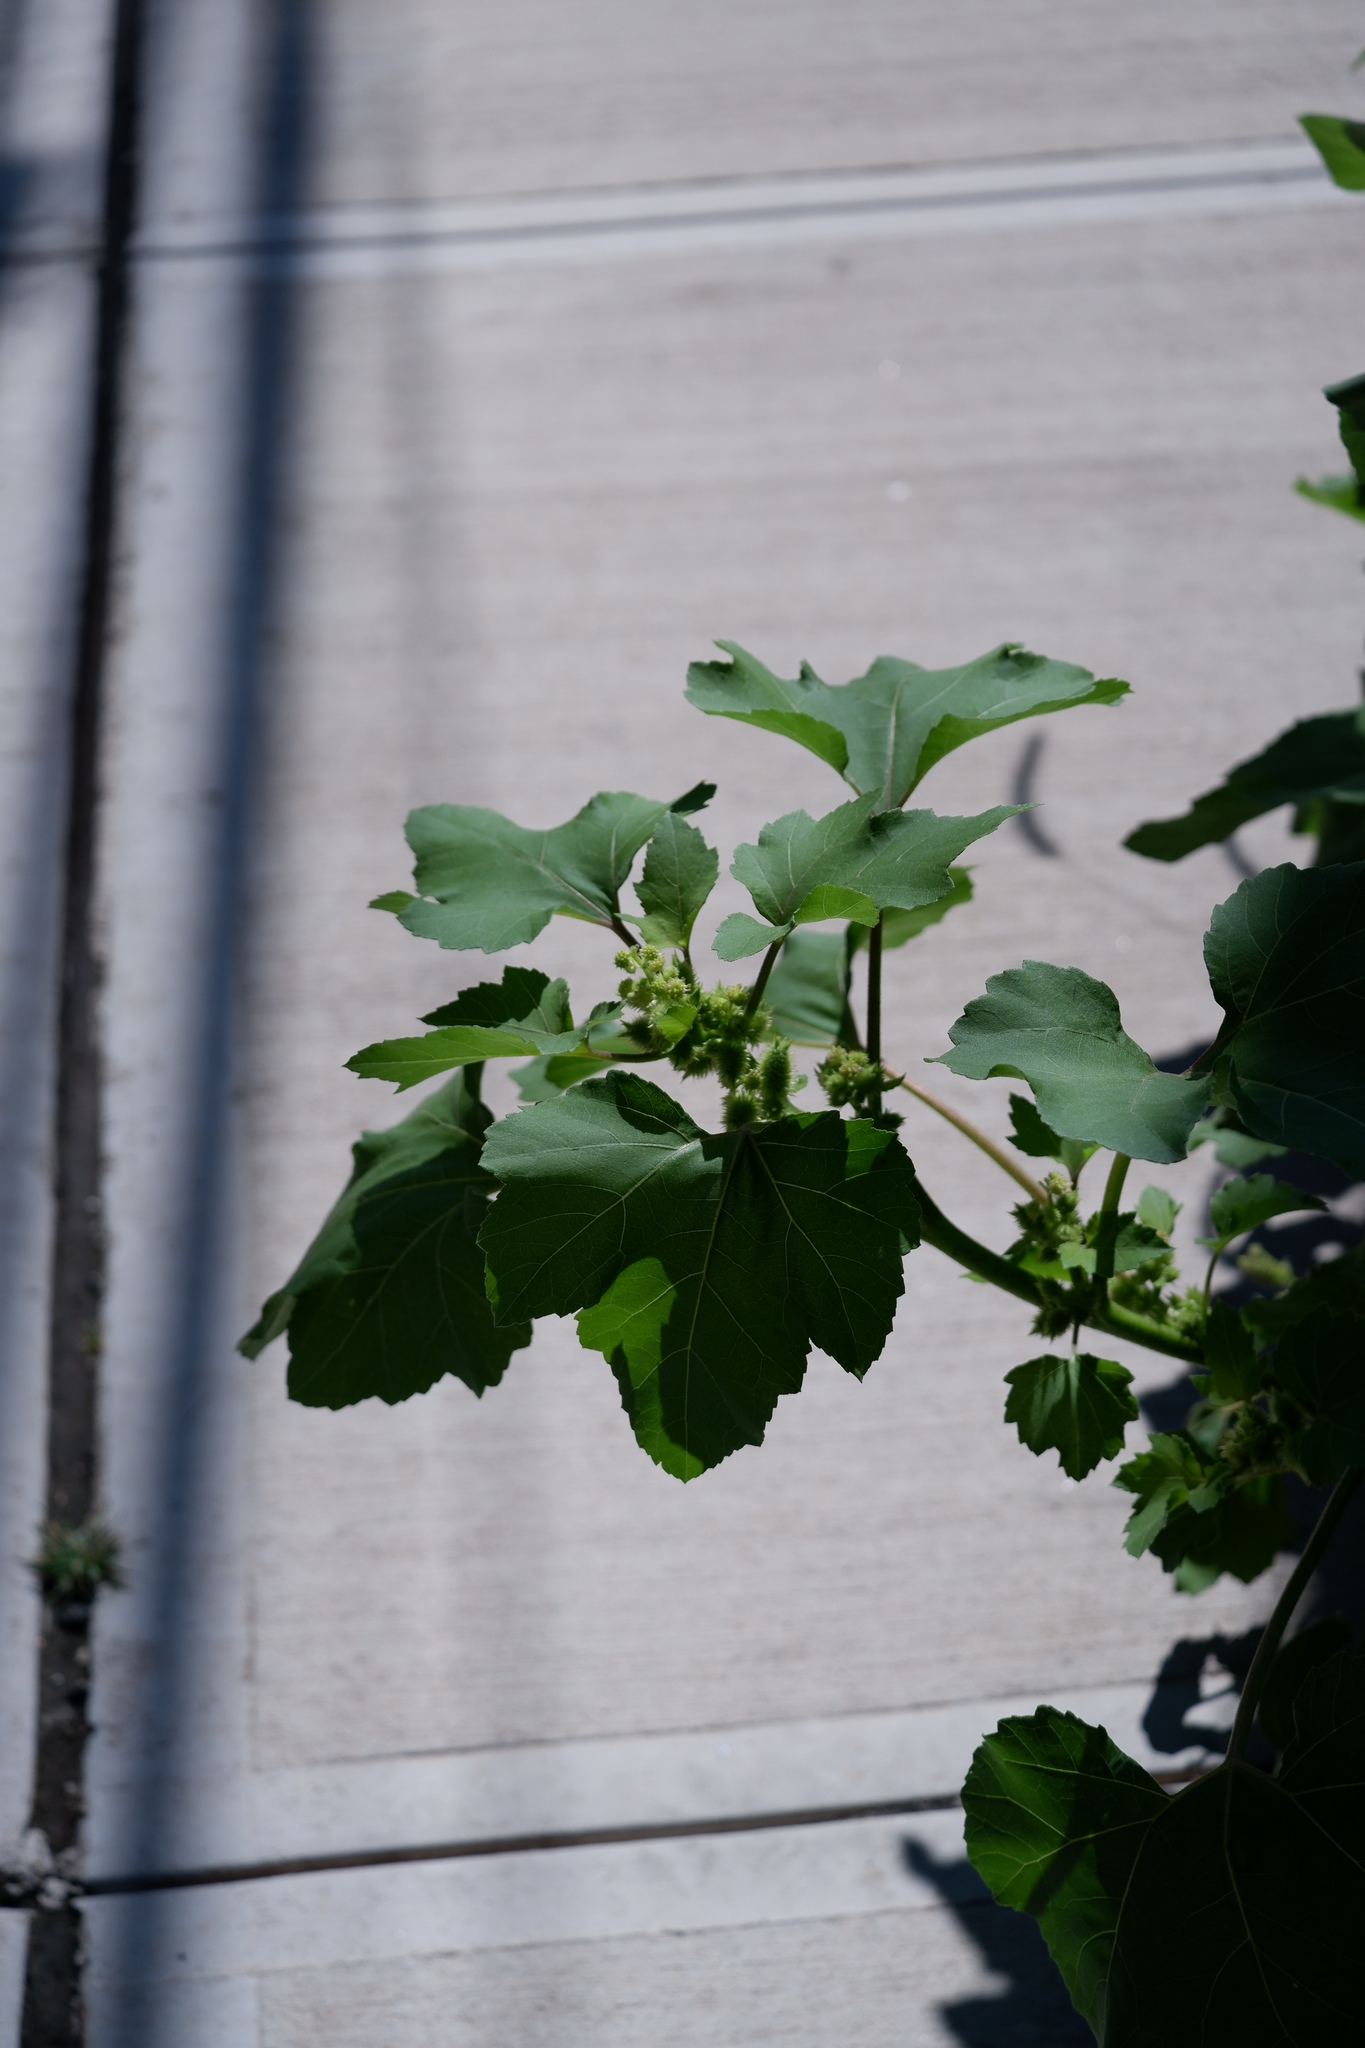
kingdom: Plantae
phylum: Tracheophyta
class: Magnoliopsida
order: Asterales
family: Asteraceae
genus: Xanthium
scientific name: Xanthium strumarium
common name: Rough cocklebur
